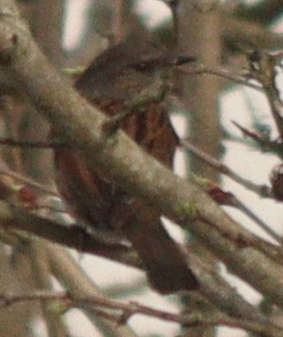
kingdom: Animalia
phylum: Chordata
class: Aves
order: Passeriformes
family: Prunellidae
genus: Prunella
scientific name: Prunella modularis
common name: Dunnock
